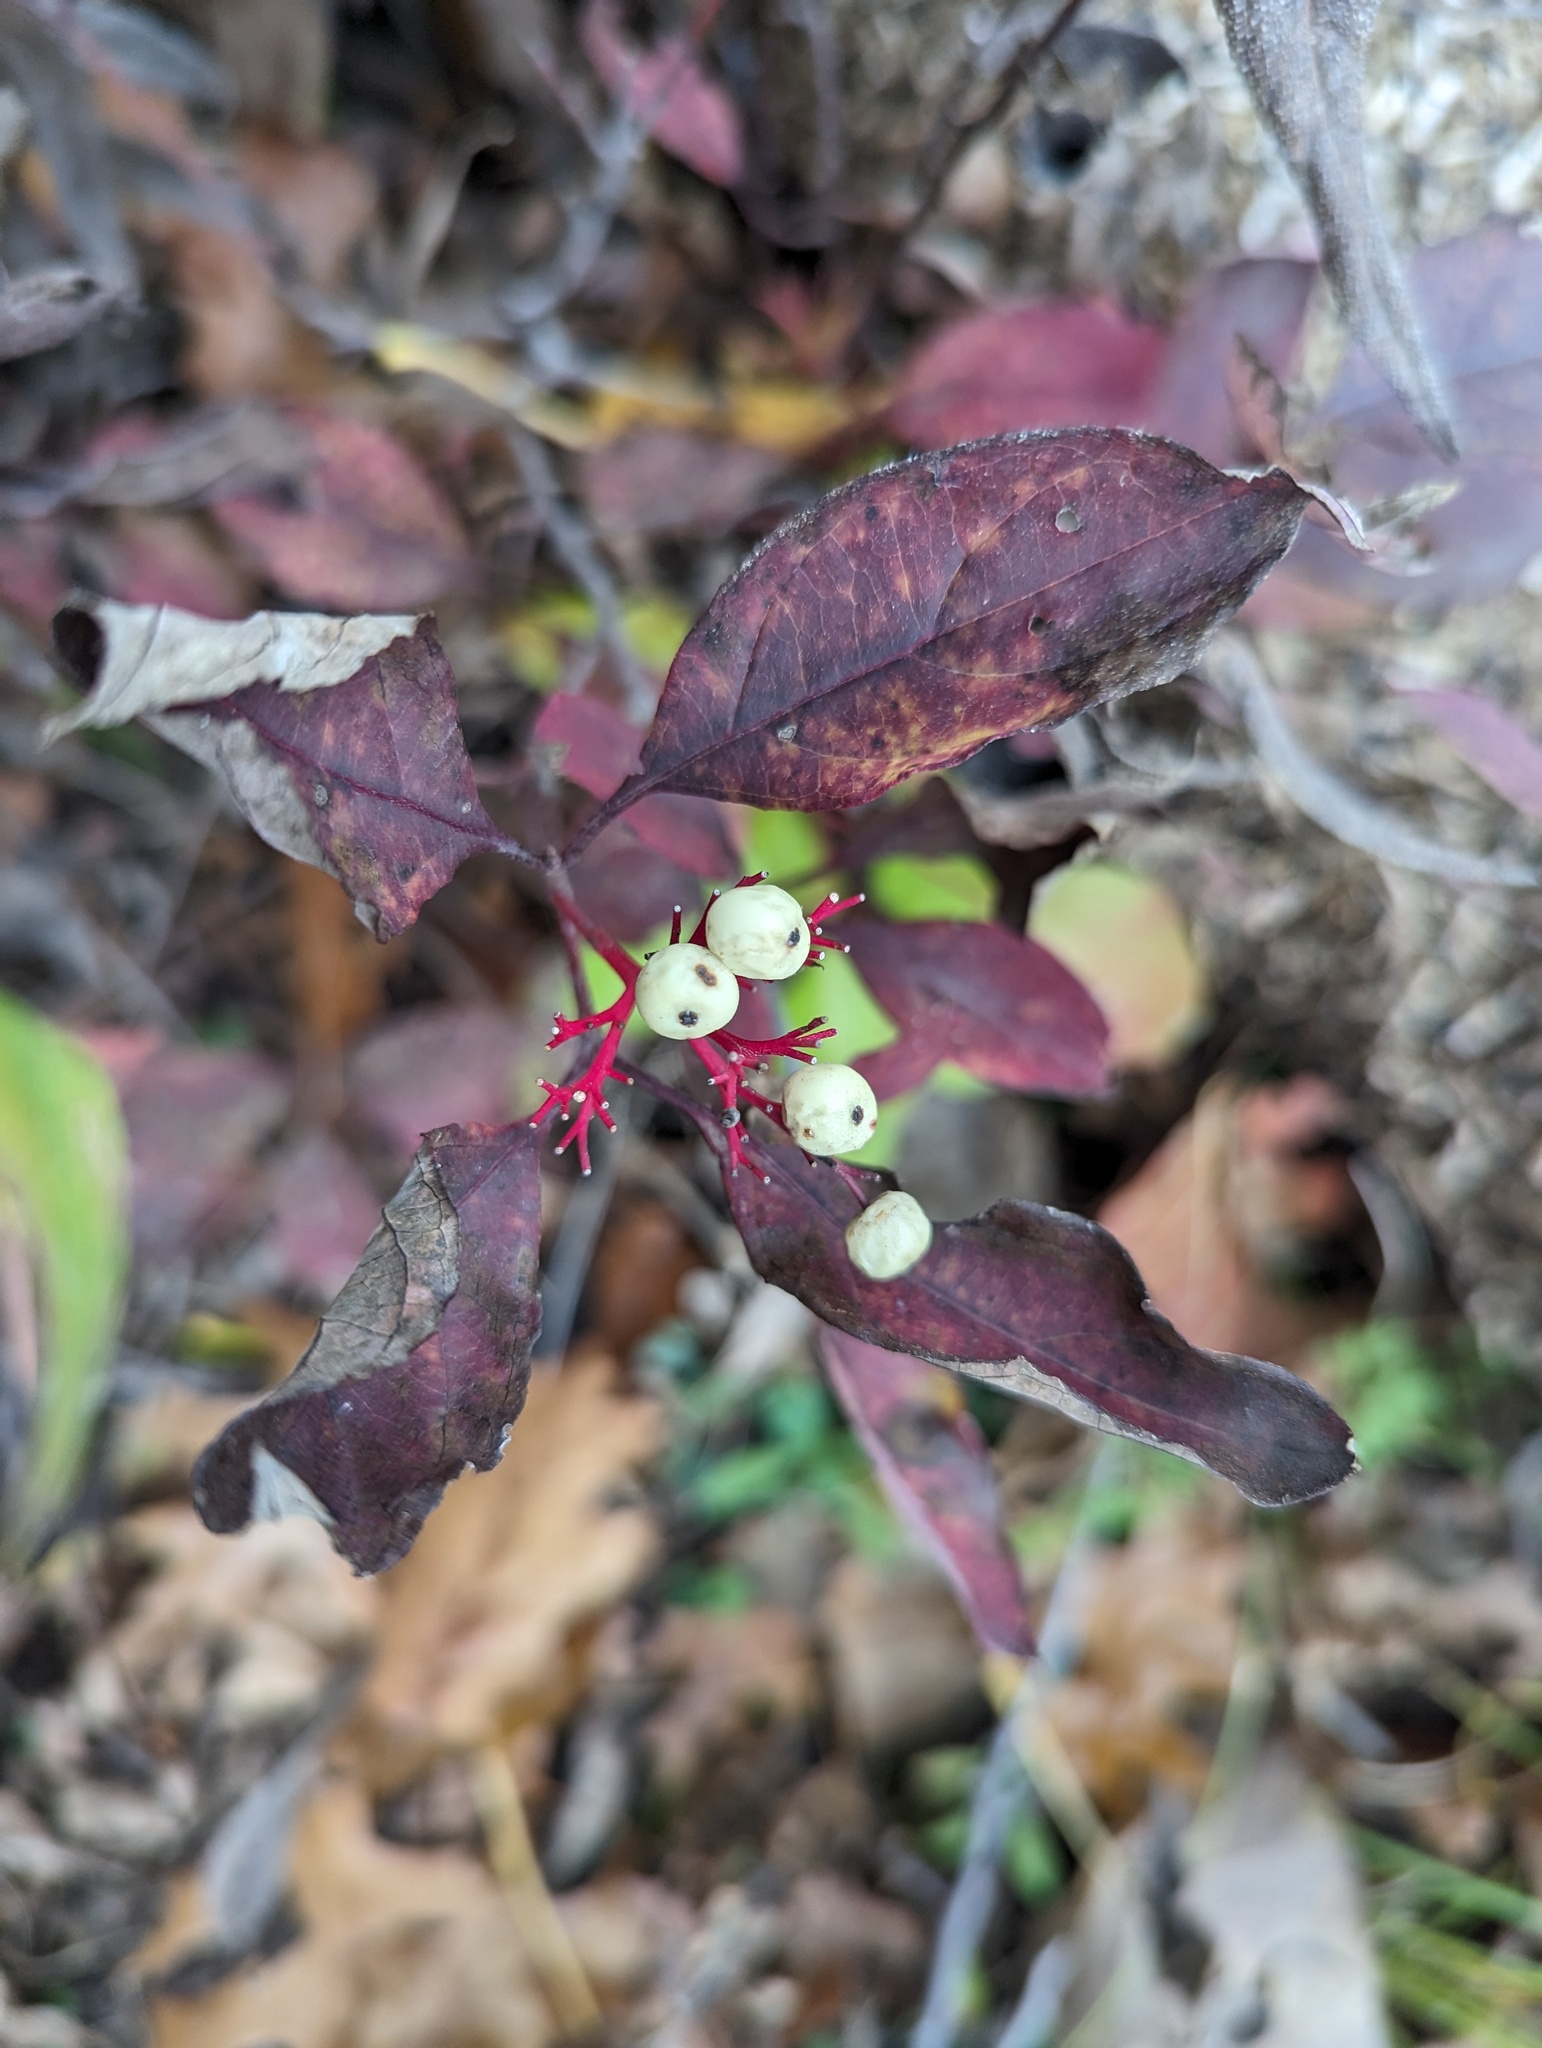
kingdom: Plantae
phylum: Tracheophyta
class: Magnoliopsida
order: Cornales
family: Cornaceae
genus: Cornus
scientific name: Cornus racemosa
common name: Panicled dogwood
